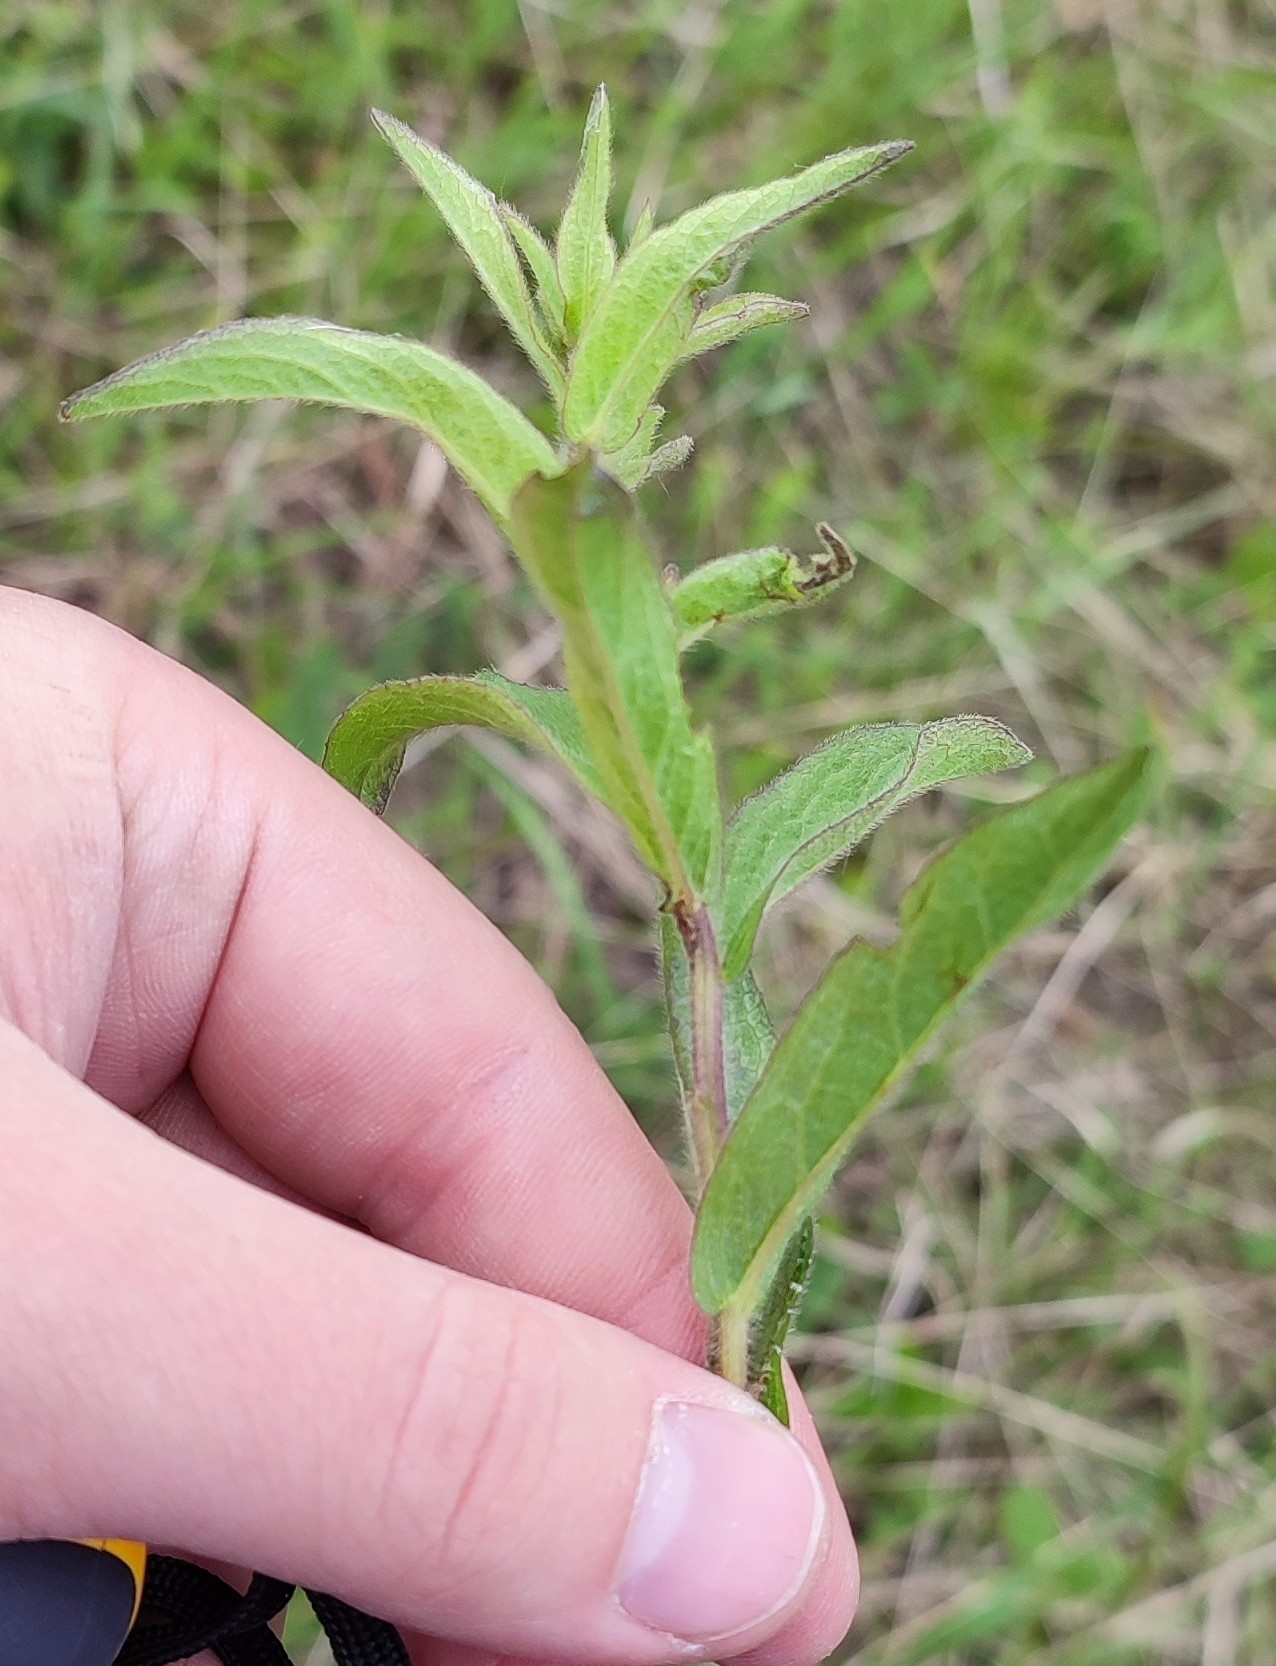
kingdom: Plantae
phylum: Tracheophyta
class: Magnoliopsida
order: Asterales
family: Asteraceae
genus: Pentanema
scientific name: Pentanema hirtum
